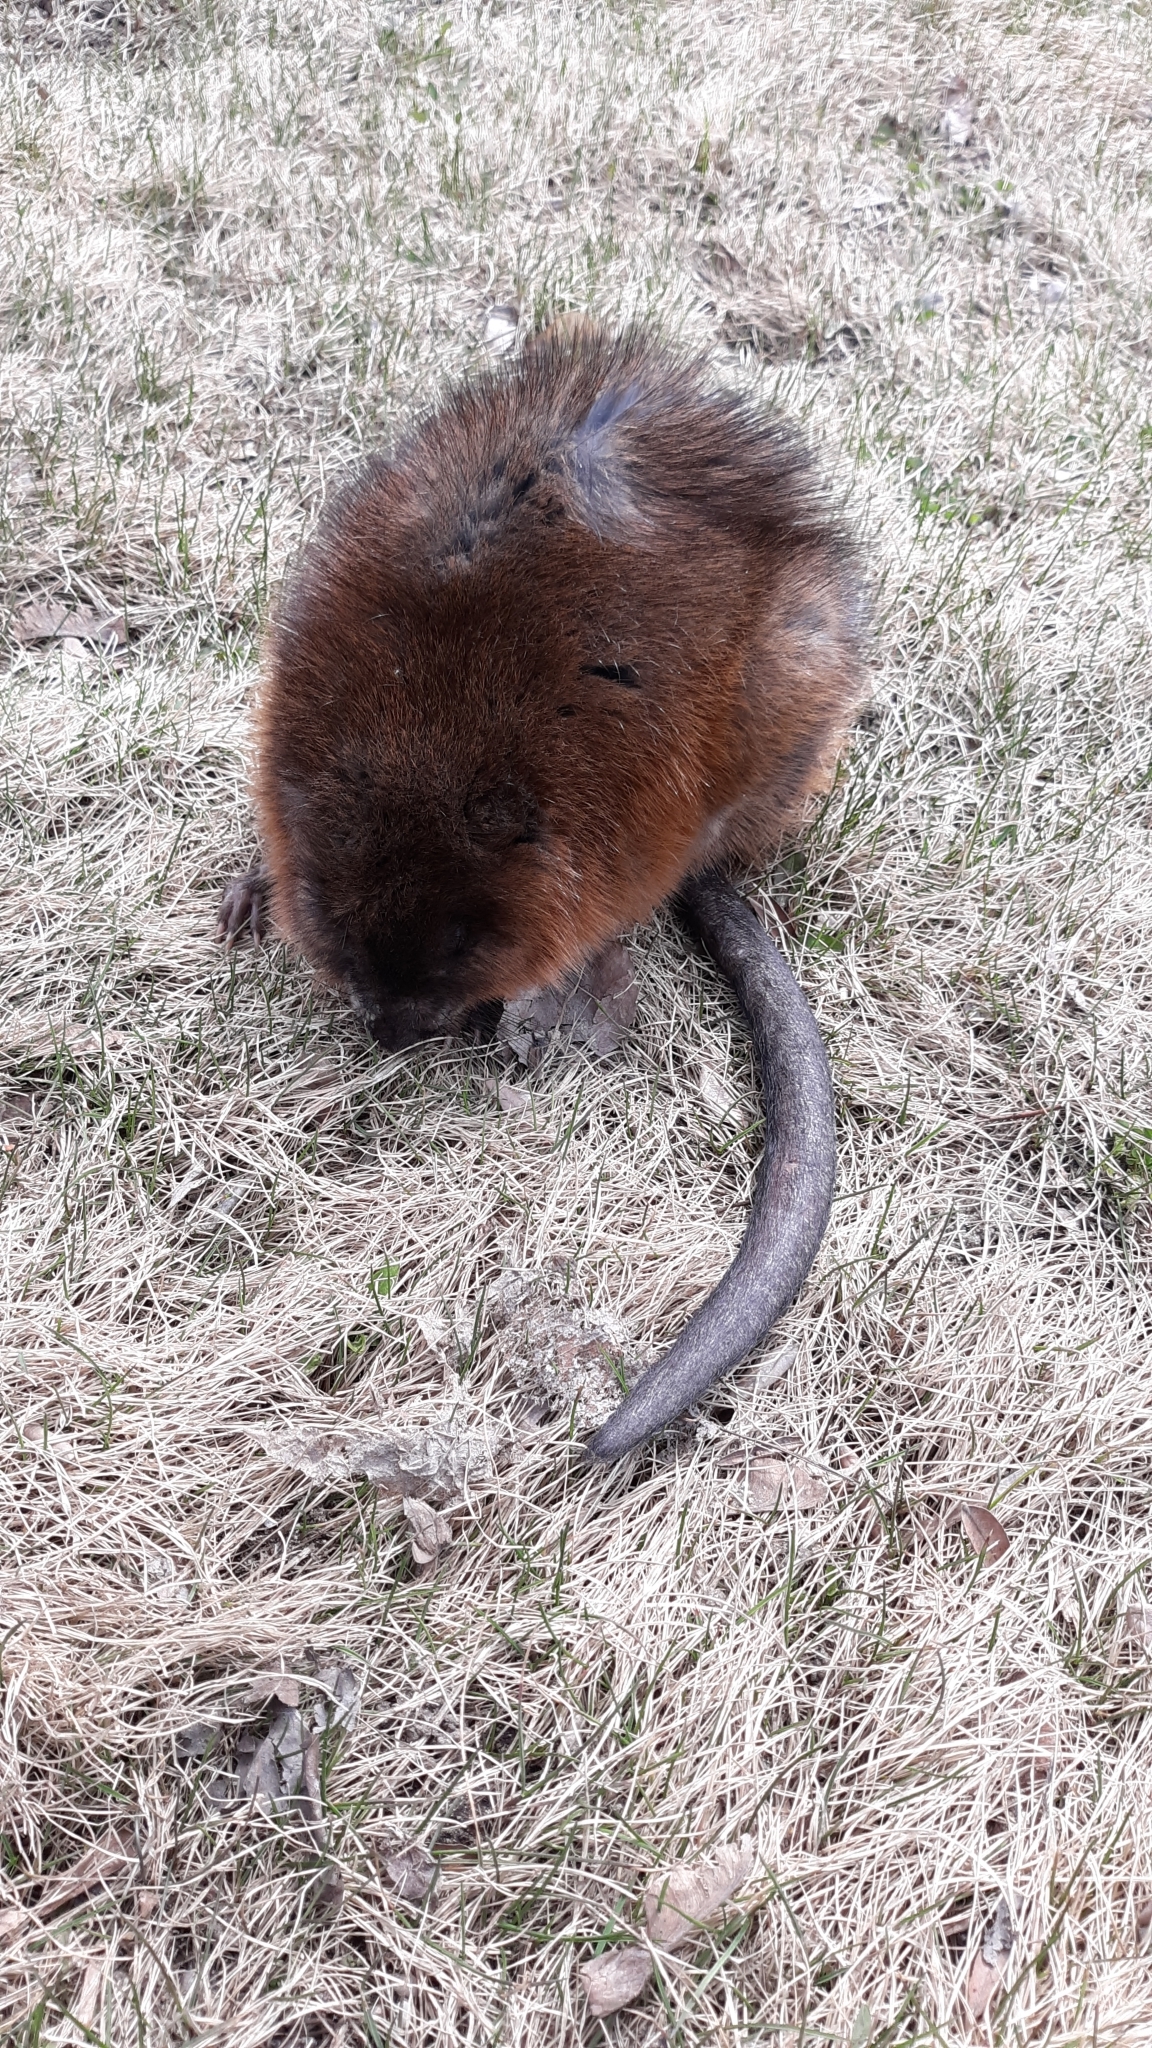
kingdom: Animalia
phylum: Chordata
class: Mammalia
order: Rodentia
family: Cricetidae
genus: Ondatra
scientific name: Ondatra zibethicus
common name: Muskrat
